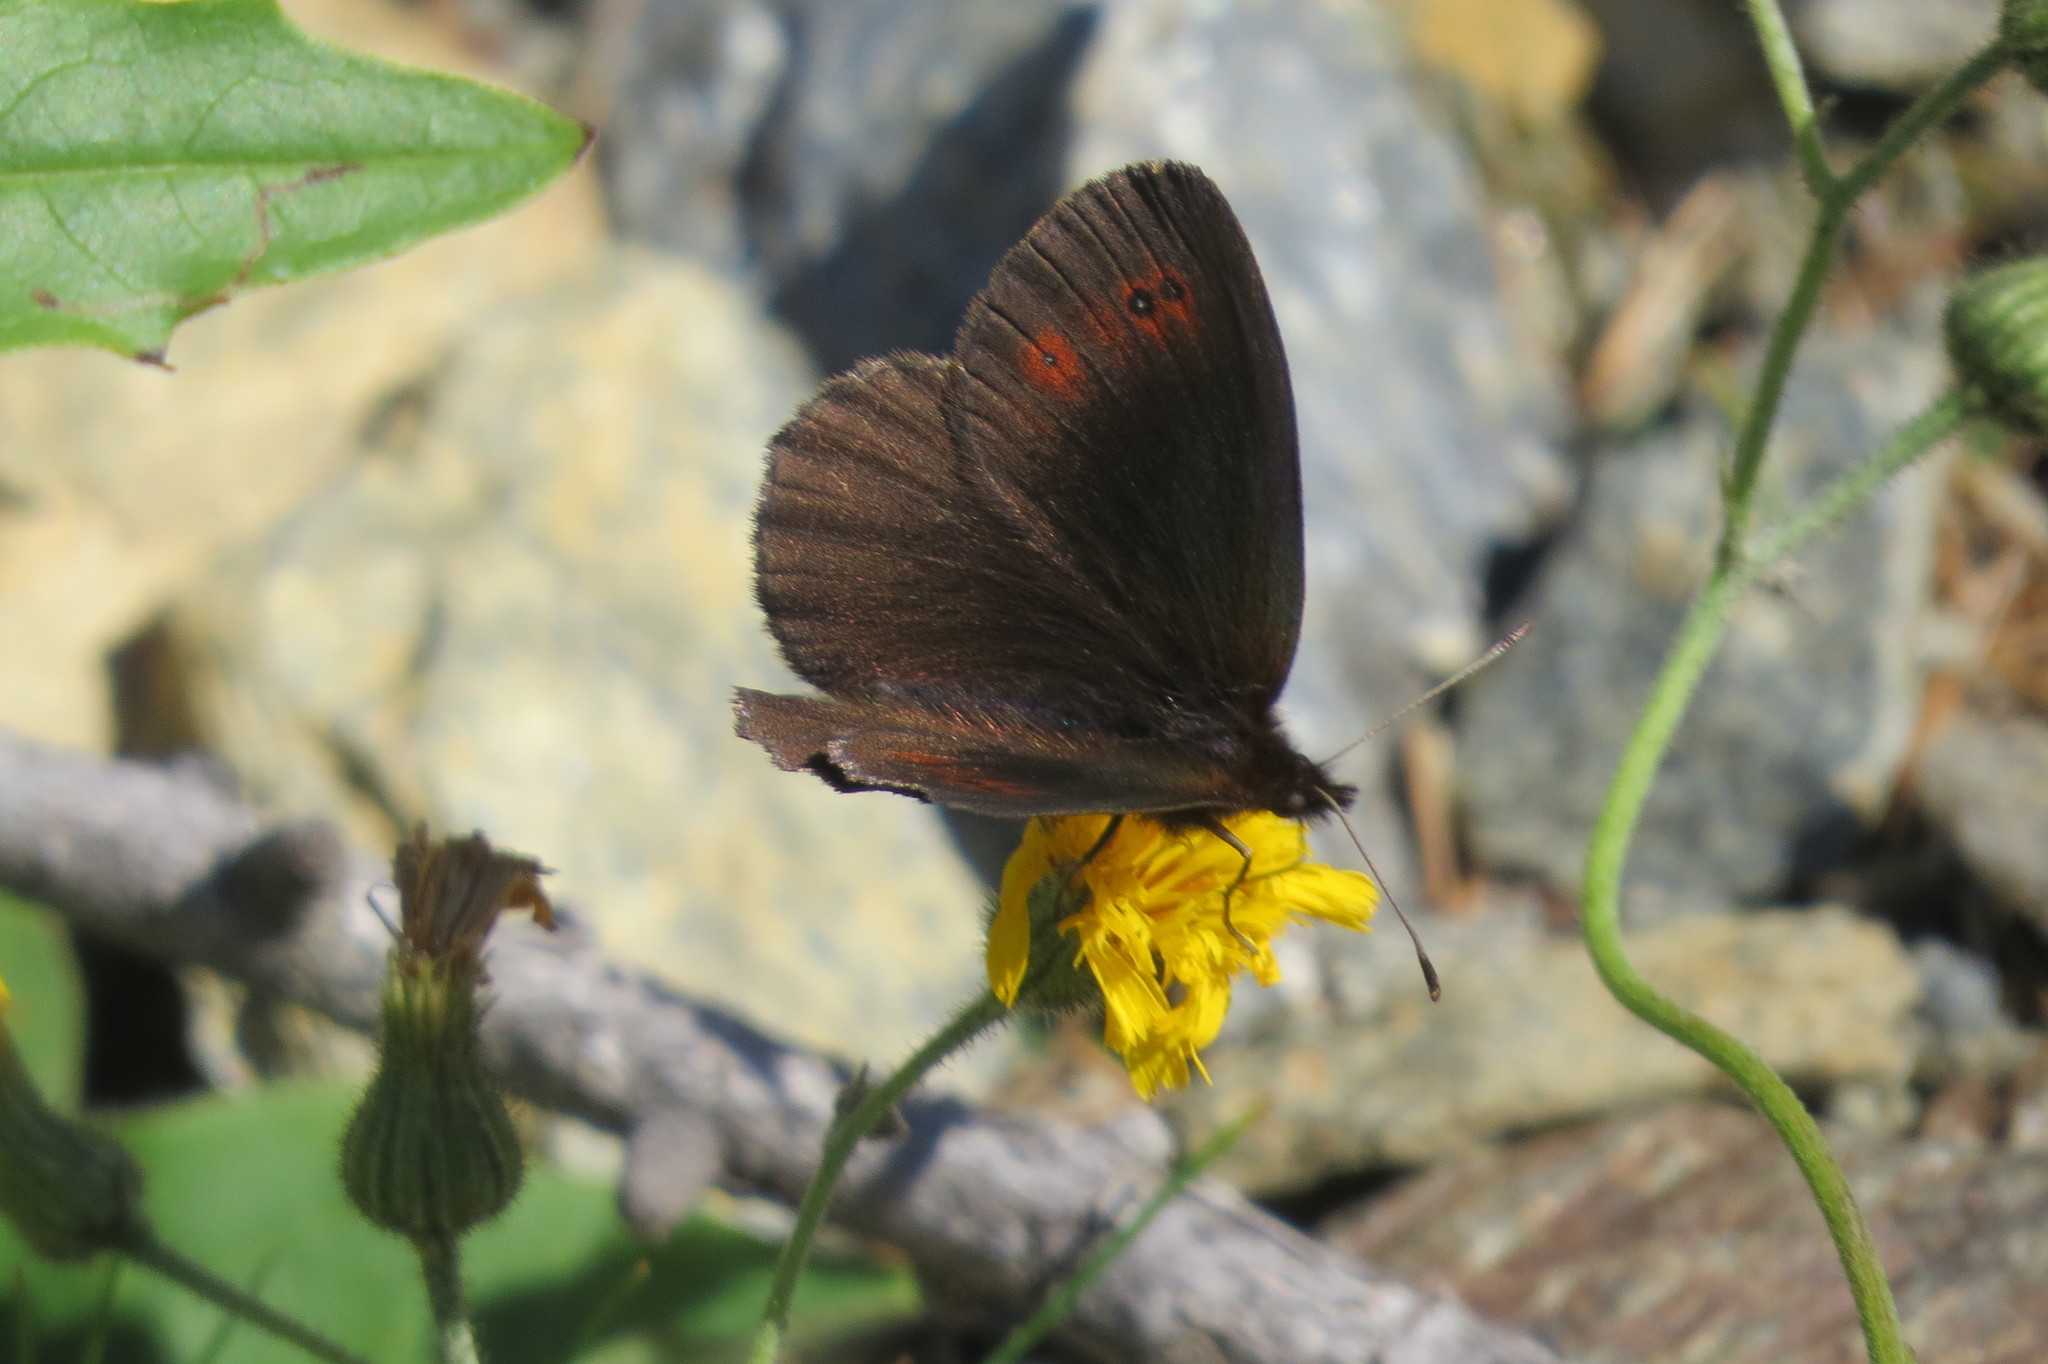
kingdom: Animalia
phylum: Arthropoda
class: Insecta
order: Lepidoptera
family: Nymphalidae
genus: Erebia
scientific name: Erebia pronoe
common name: Water ringlet
